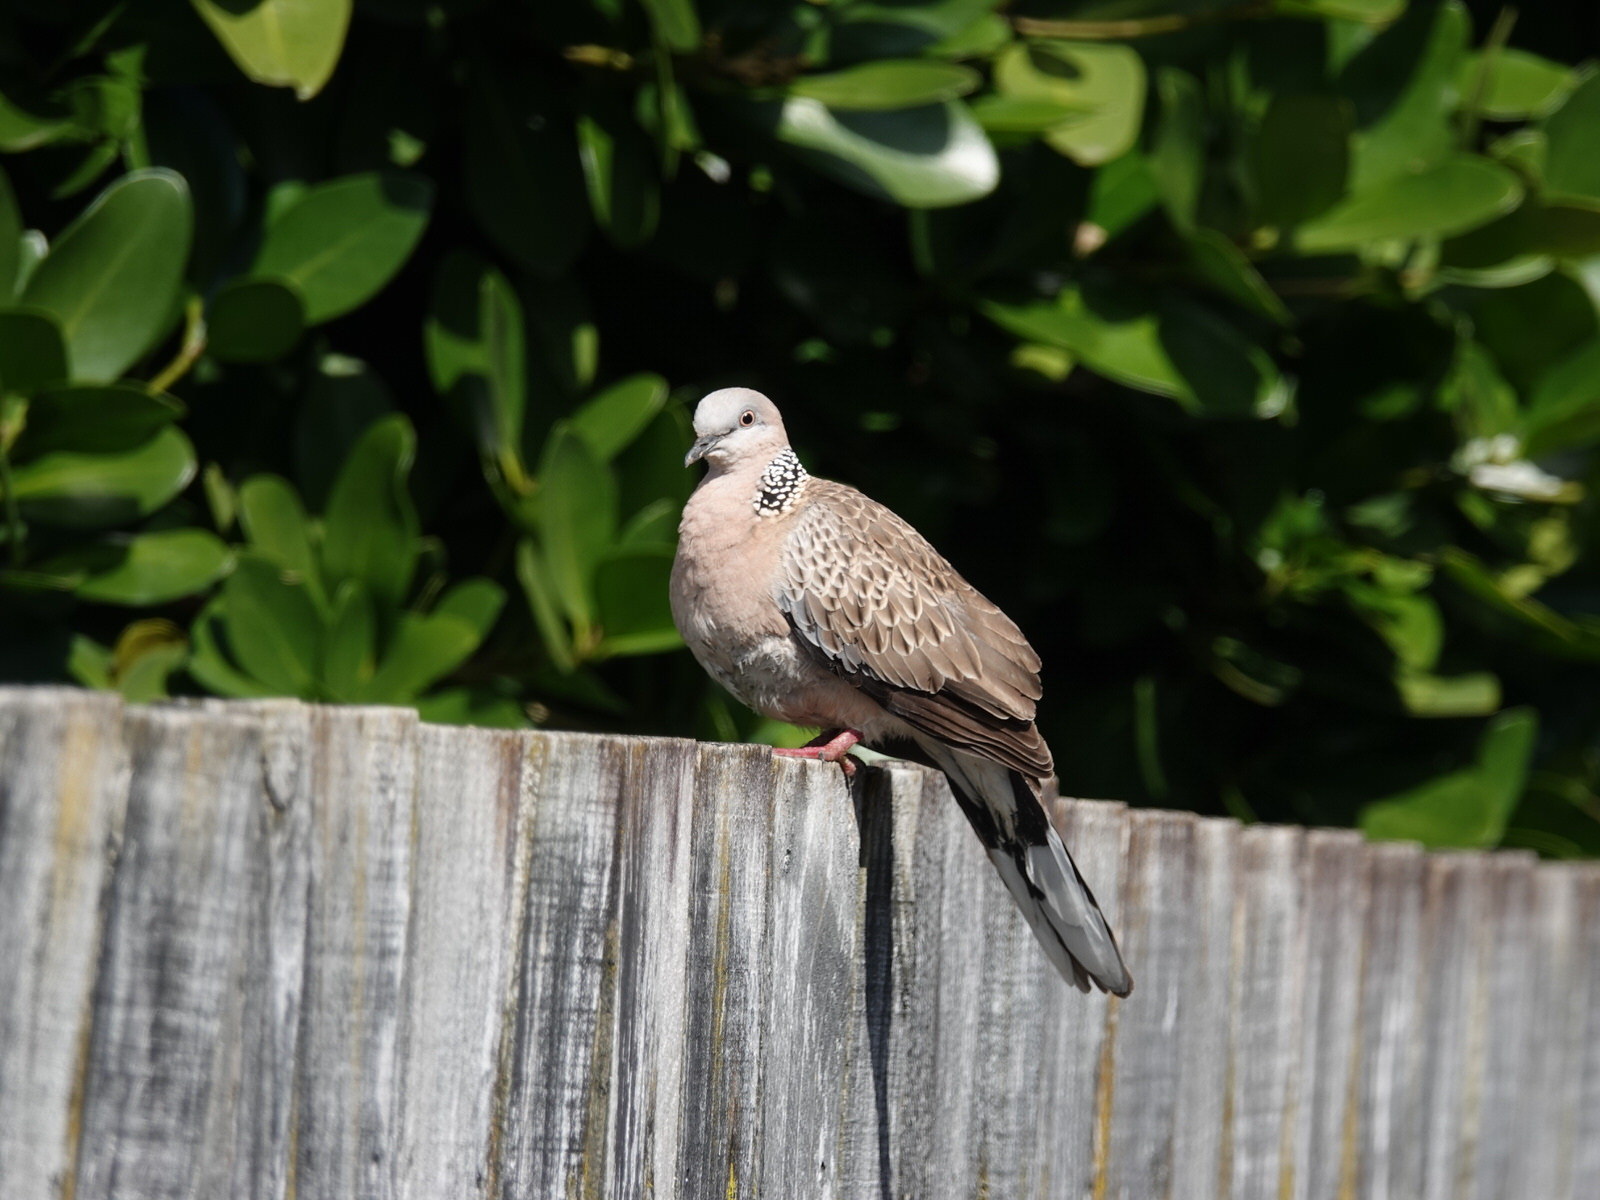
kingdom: Animalia
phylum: Chordata
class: Aves
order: Columbiformes
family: Columbidae
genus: Spilopelia
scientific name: Spilopelia chinensis
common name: Spotted dove
